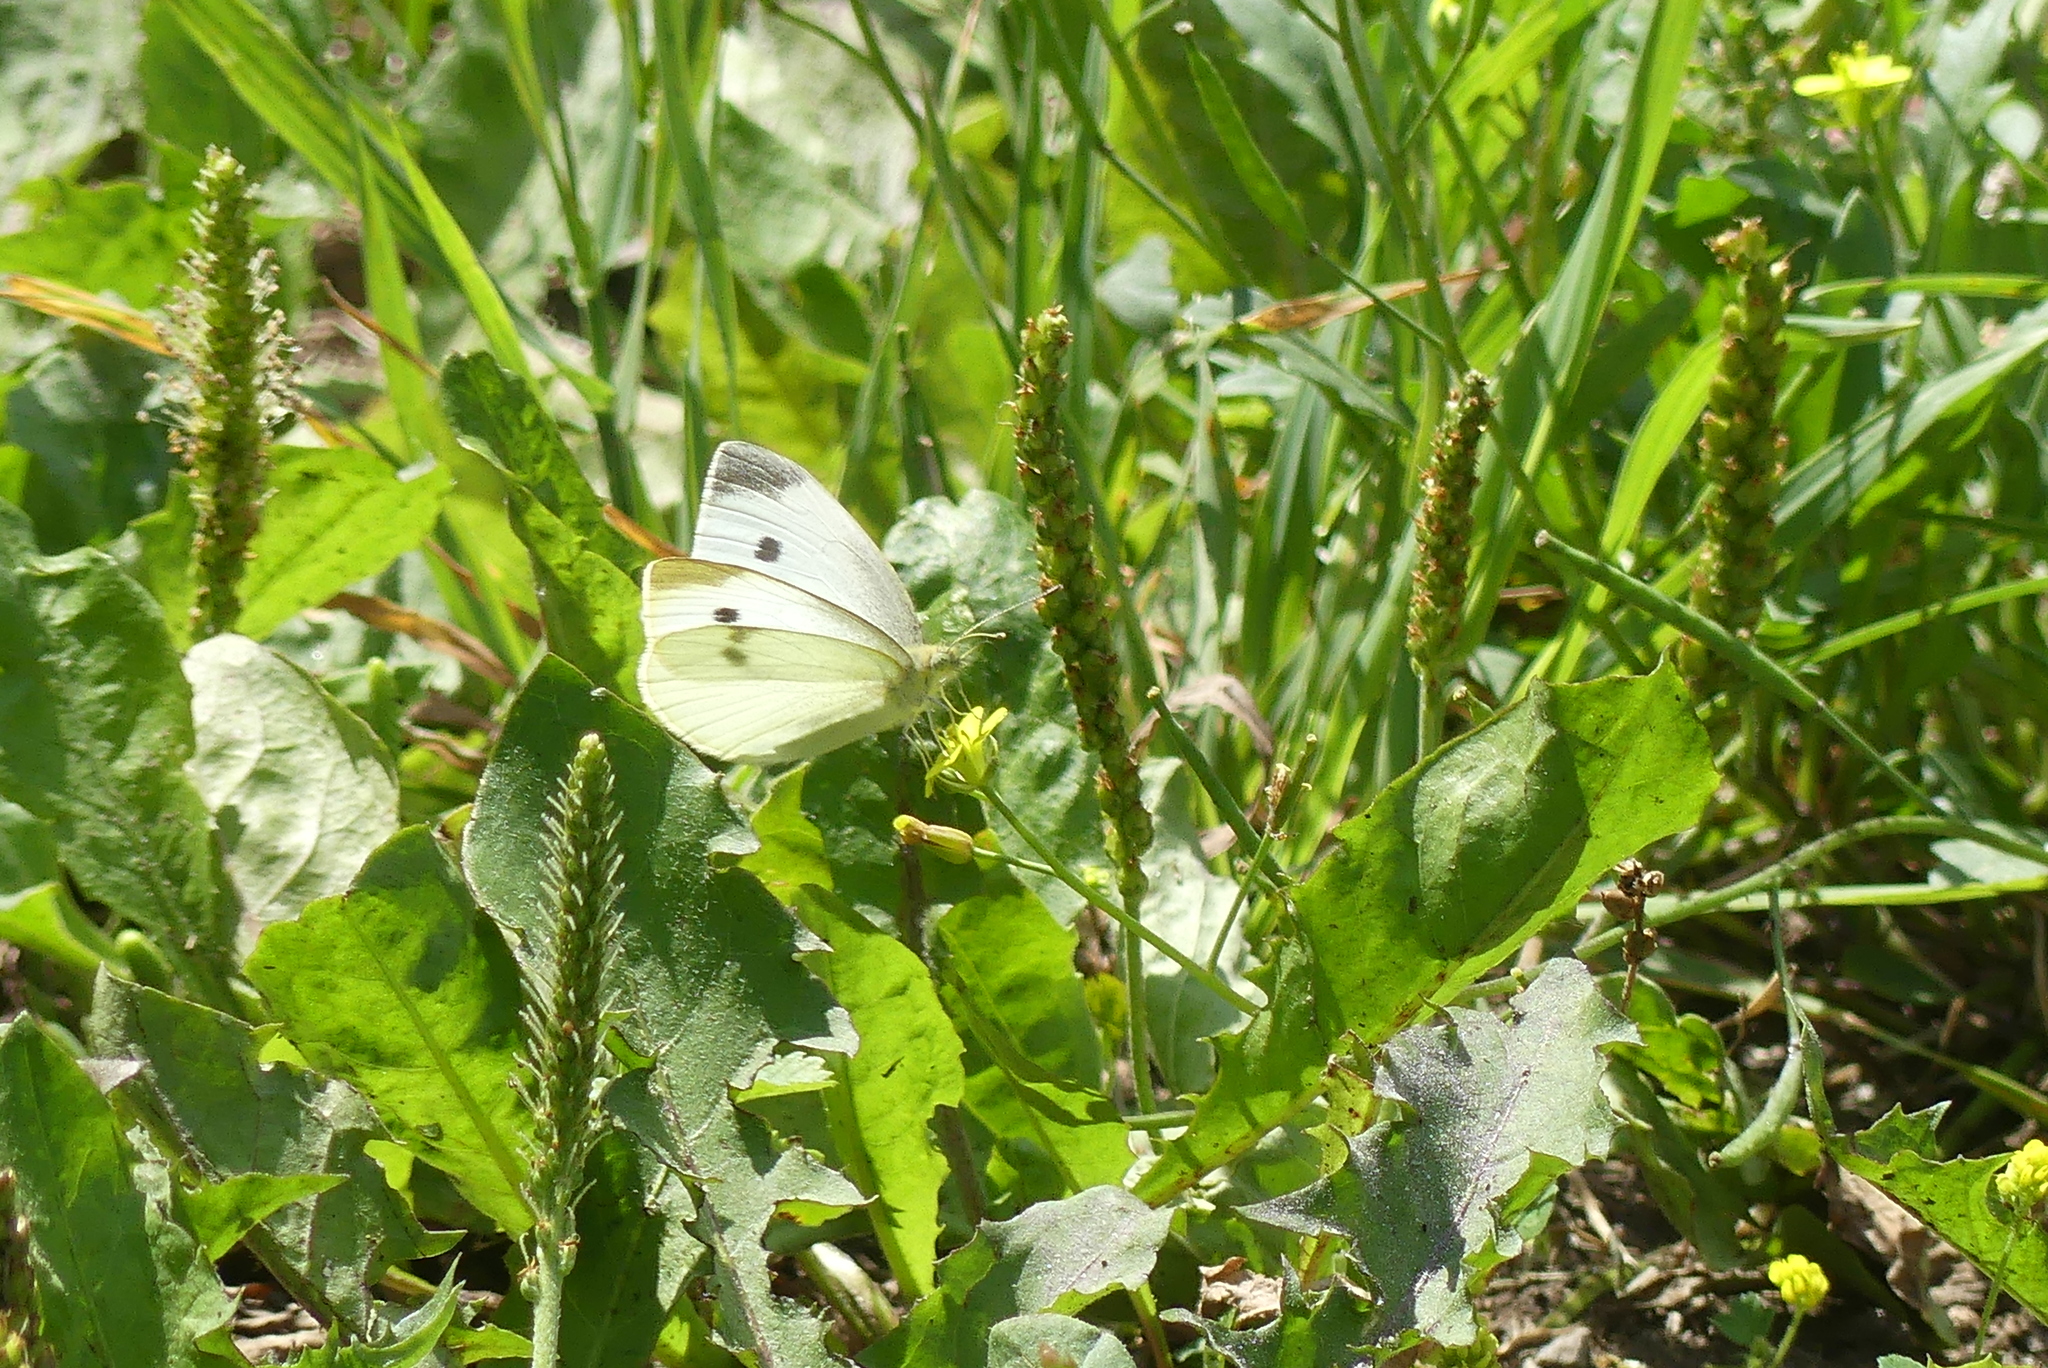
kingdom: Animalia
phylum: Arthropoda
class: Insecta
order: Lepidoptera
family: Pieridae
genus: Pieris
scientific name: Pieris rapae
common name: Small white
